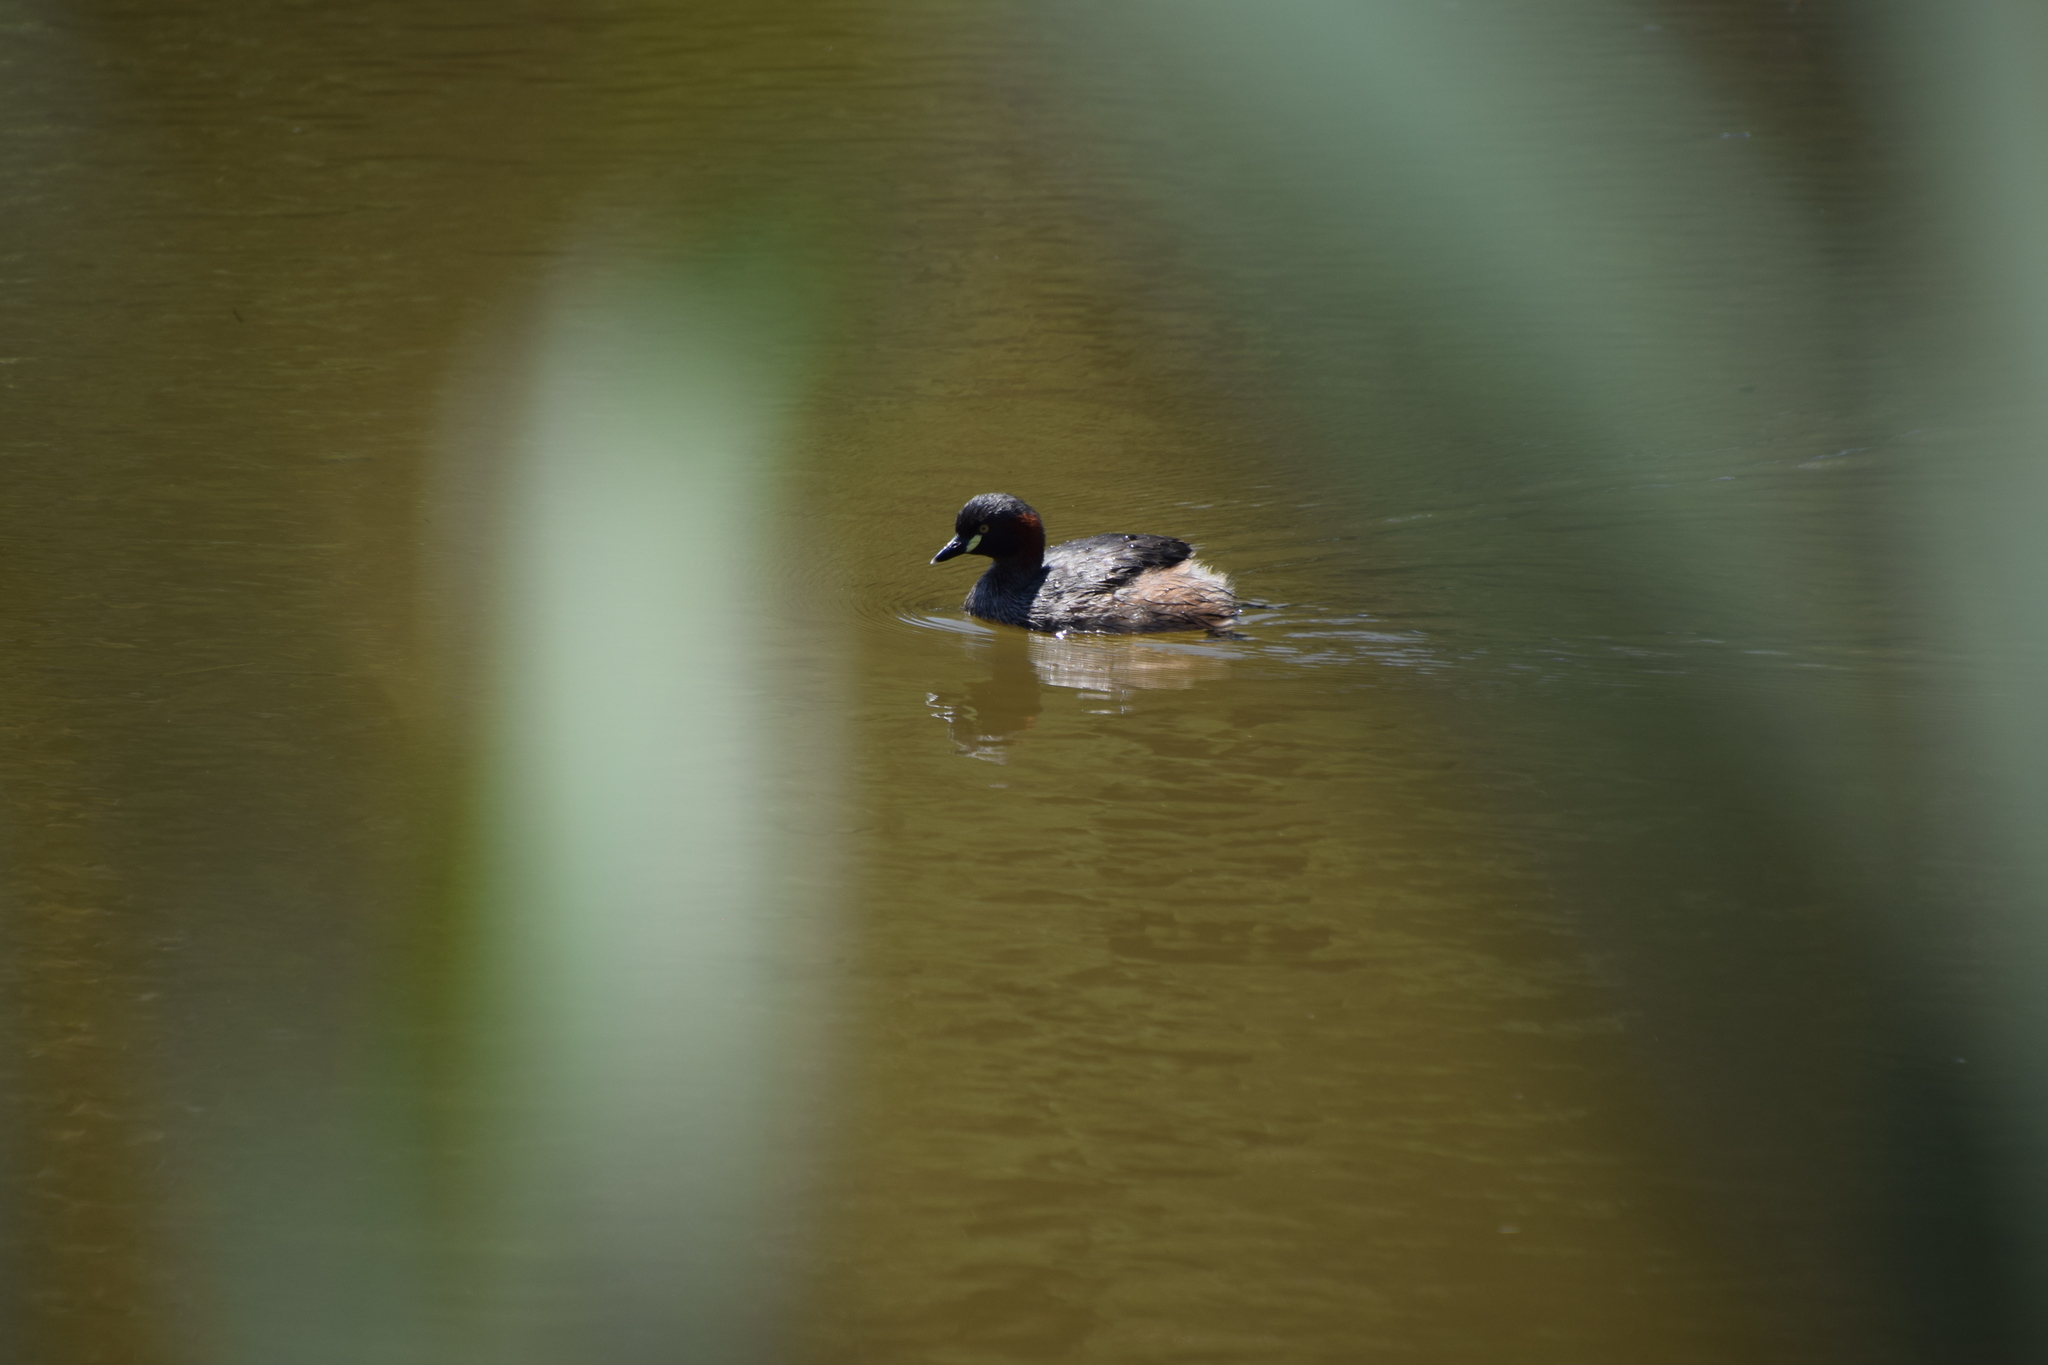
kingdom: Animalia
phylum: Chordata
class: Aves
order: Podicipediformes
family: Podicipedidae
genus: Tachybaptus
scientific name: Tachybaptus novaehollandiae
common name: Australasian grebe
